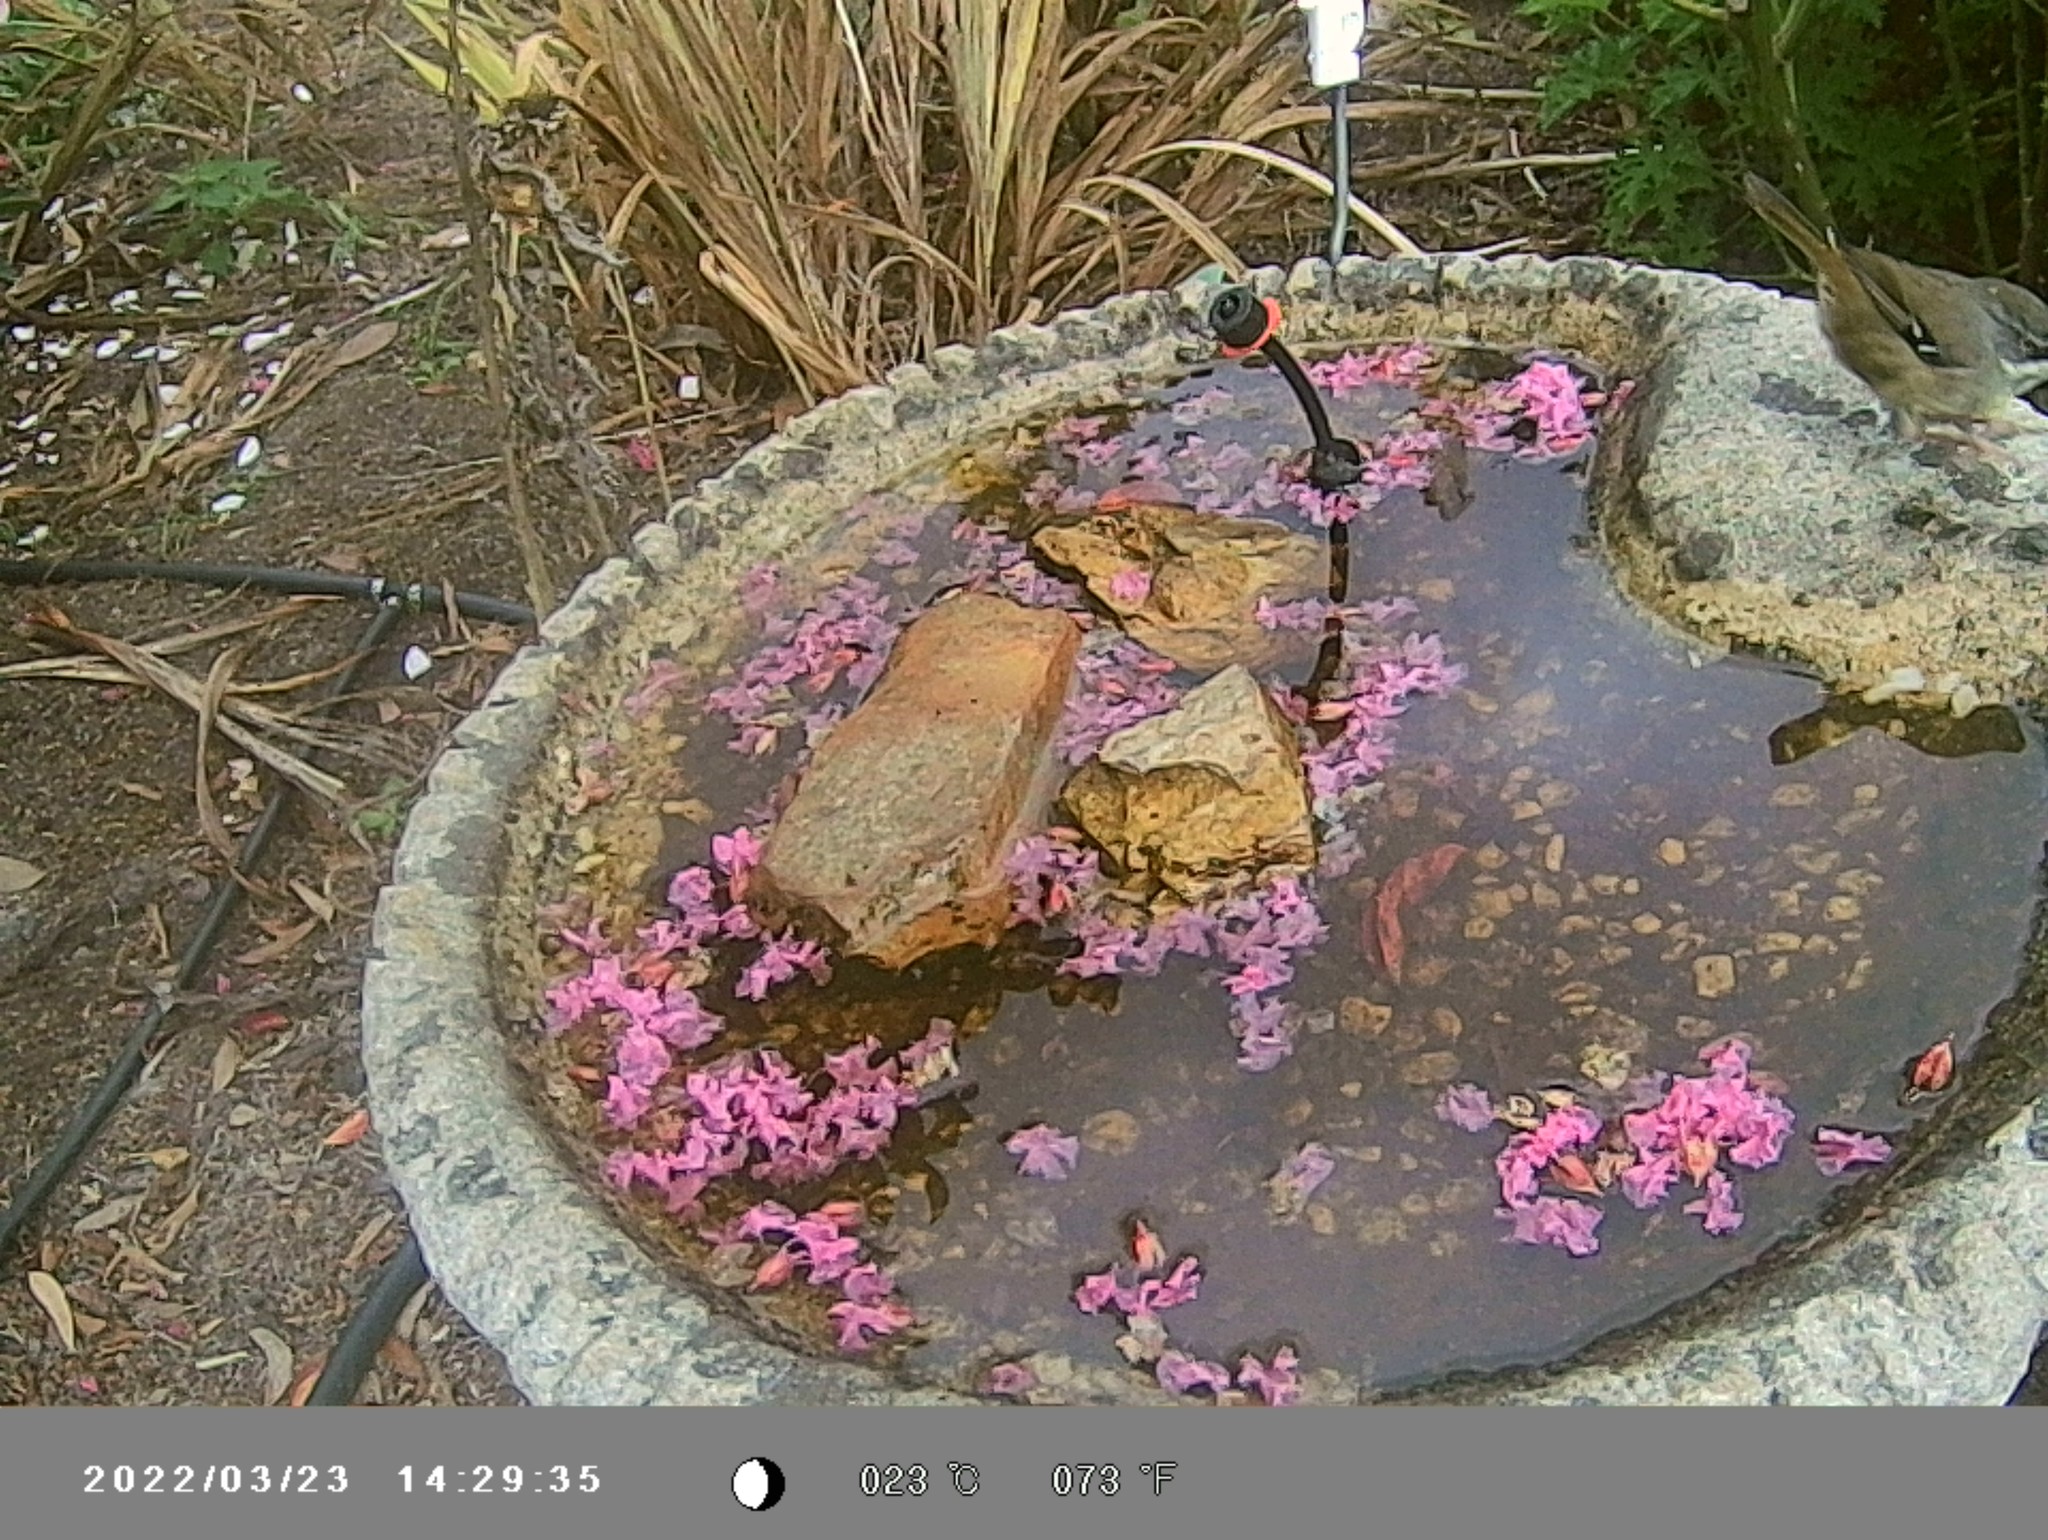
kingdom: Animalia
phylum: Chordata
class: Aves
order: Passeriformes
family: Acanthizidae
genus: Sericornis
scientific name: Sericornis frontalis
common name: White-browed scrubwren
